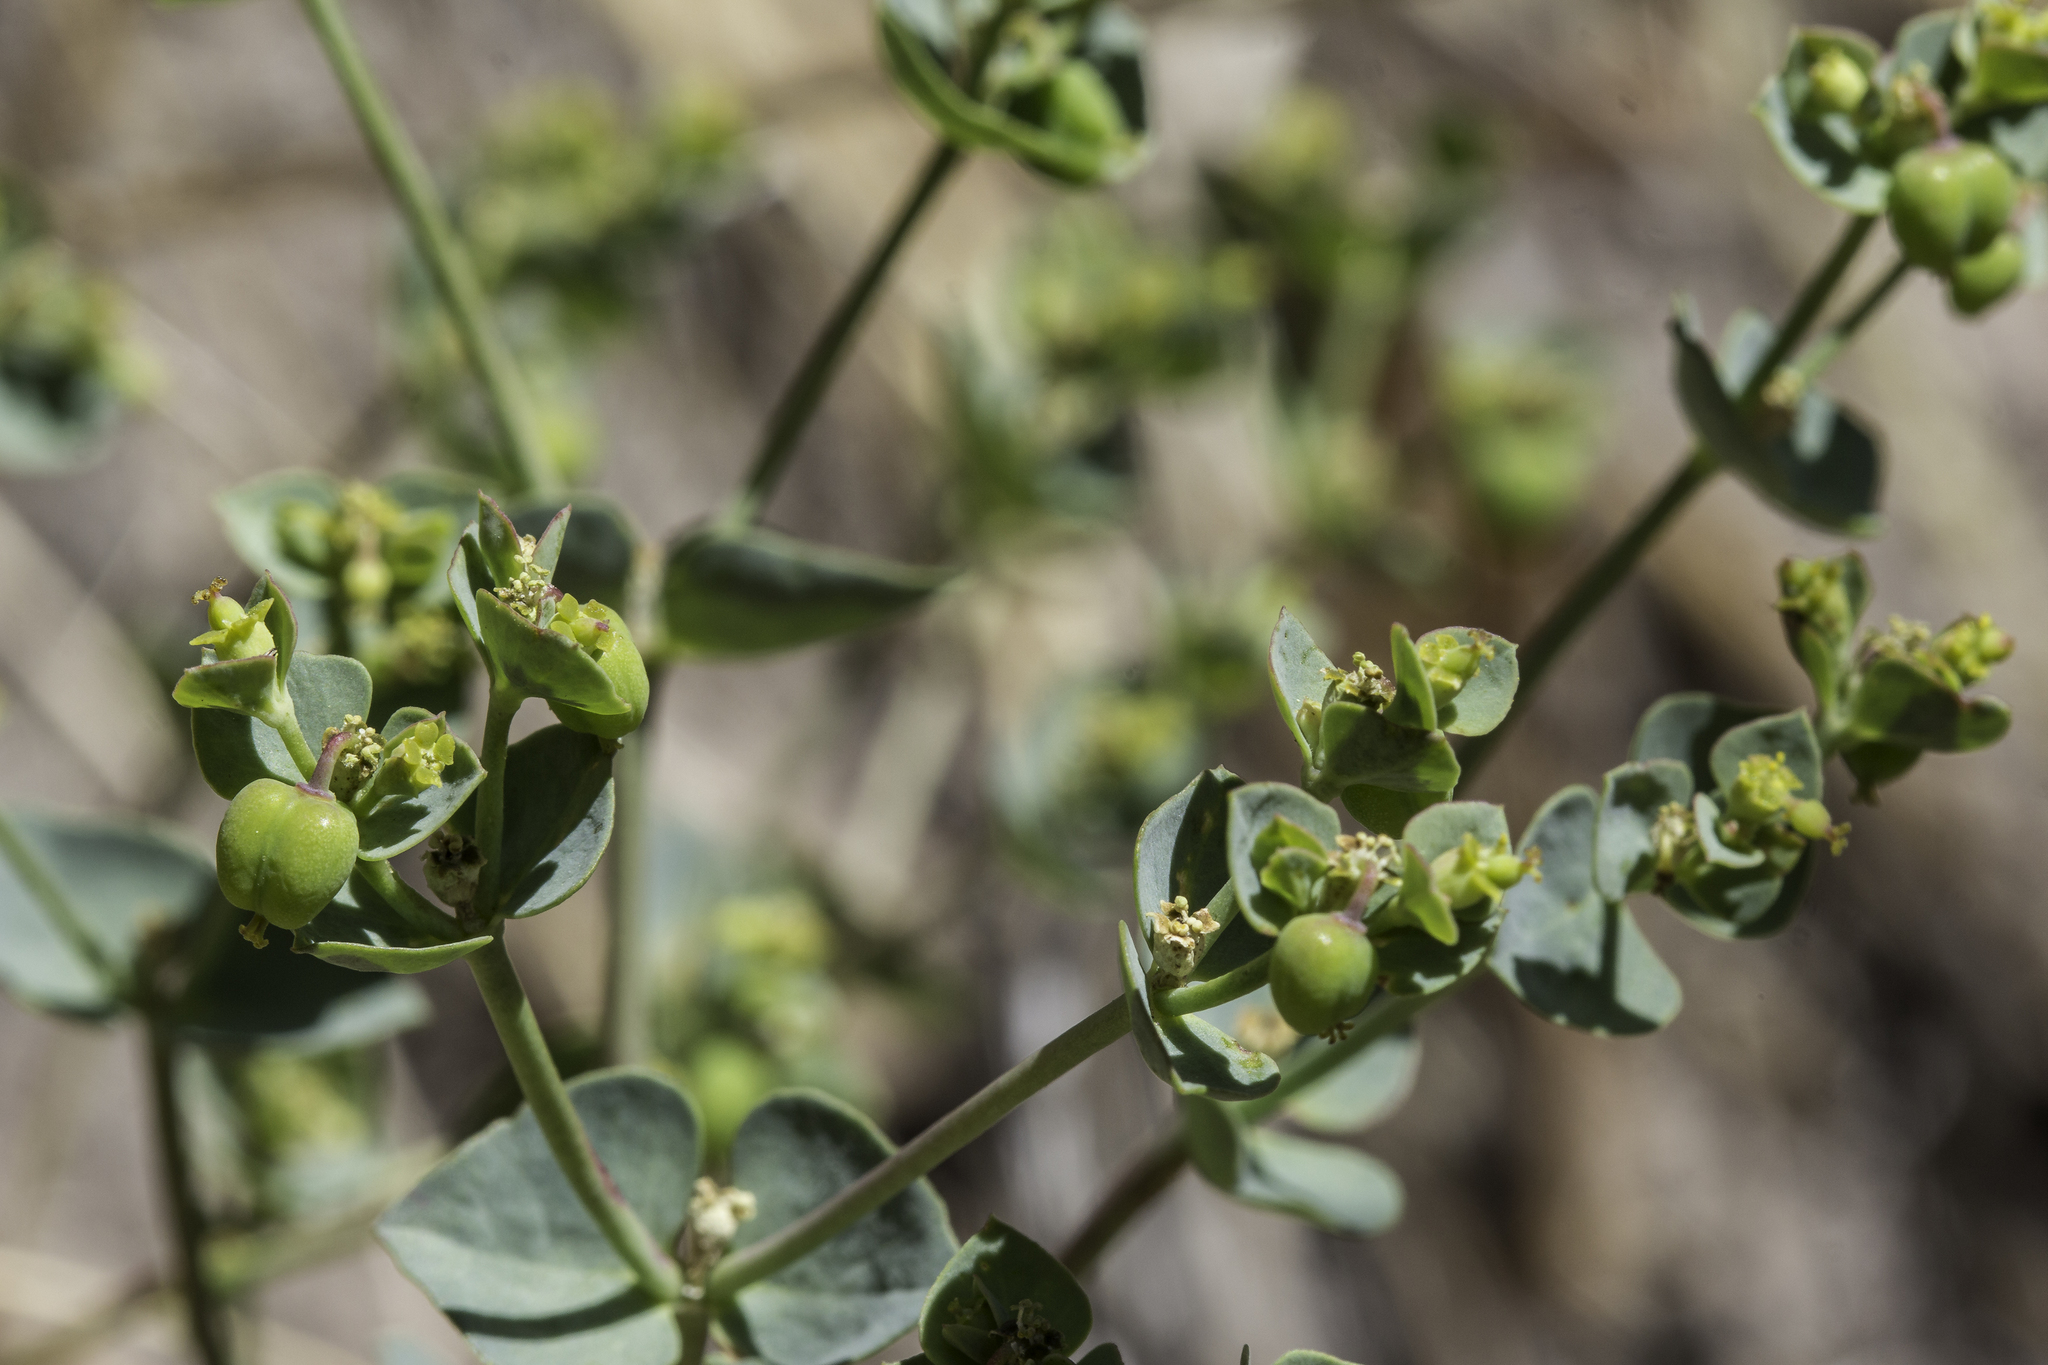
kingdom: Plantae
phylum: Tracheophyta
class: Magnoliopsida
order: Malpighiales
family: Euphorbiaceae
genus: Euphorbia
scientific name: Euphorbia brachycera
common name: Shorthorn spurge
